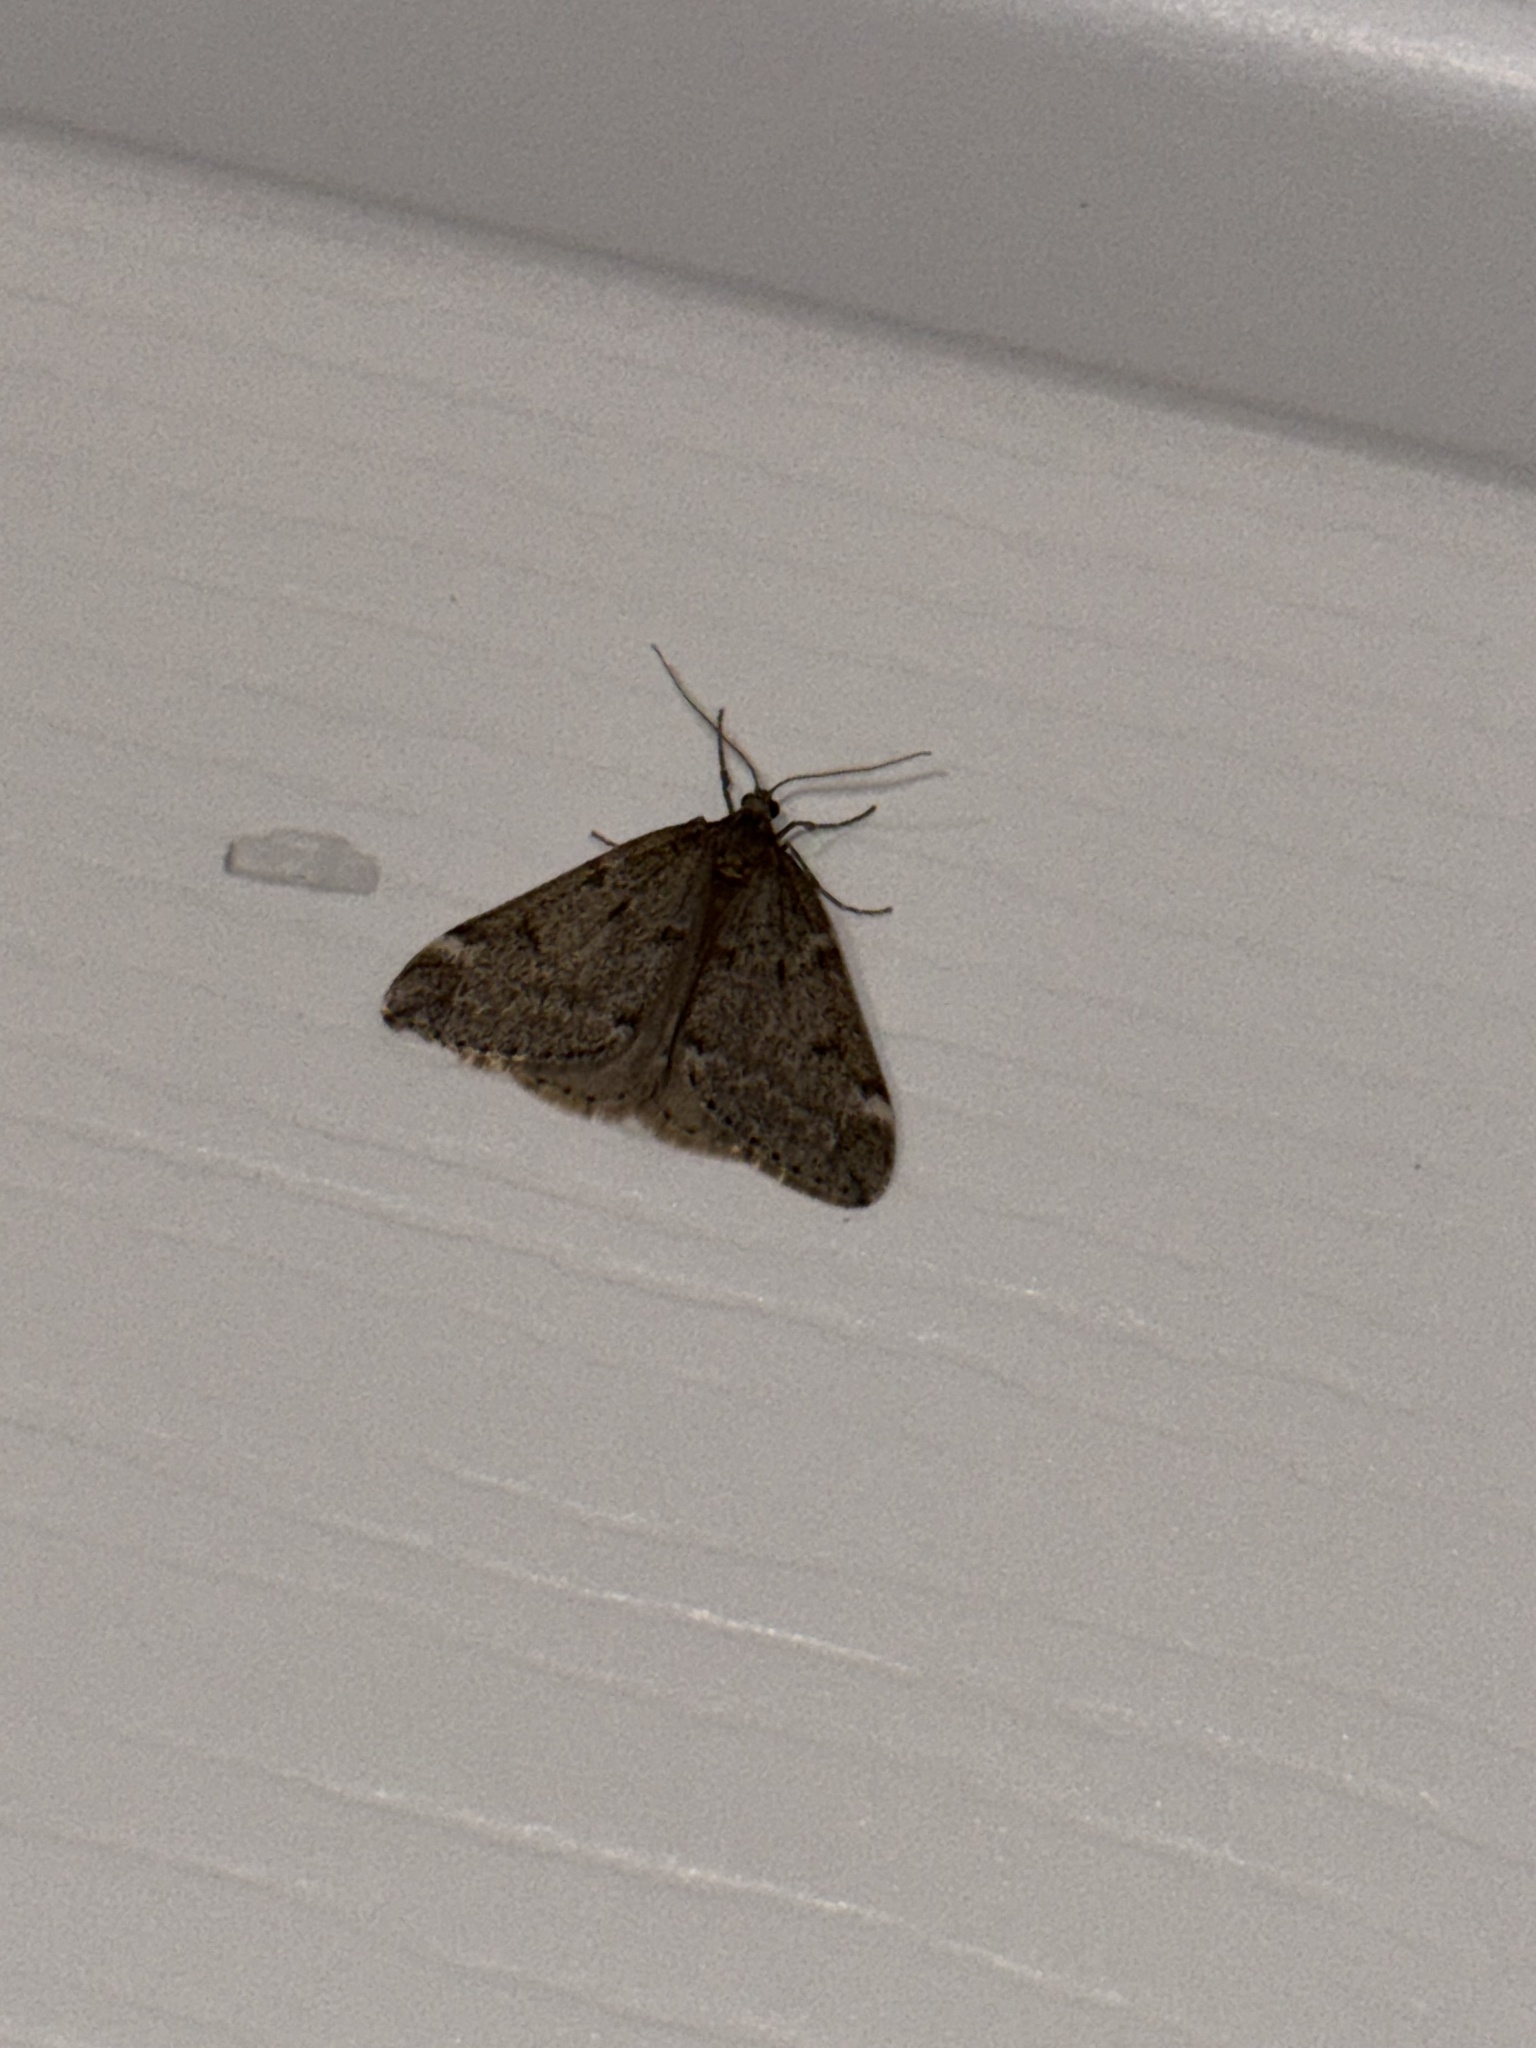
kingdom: Animalia
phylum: Arthropoda
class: Insecta
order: Lepidoptera
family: Geometridae
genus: Alsophila
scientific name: Alsophila pometaria
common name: Fall cankerworm
